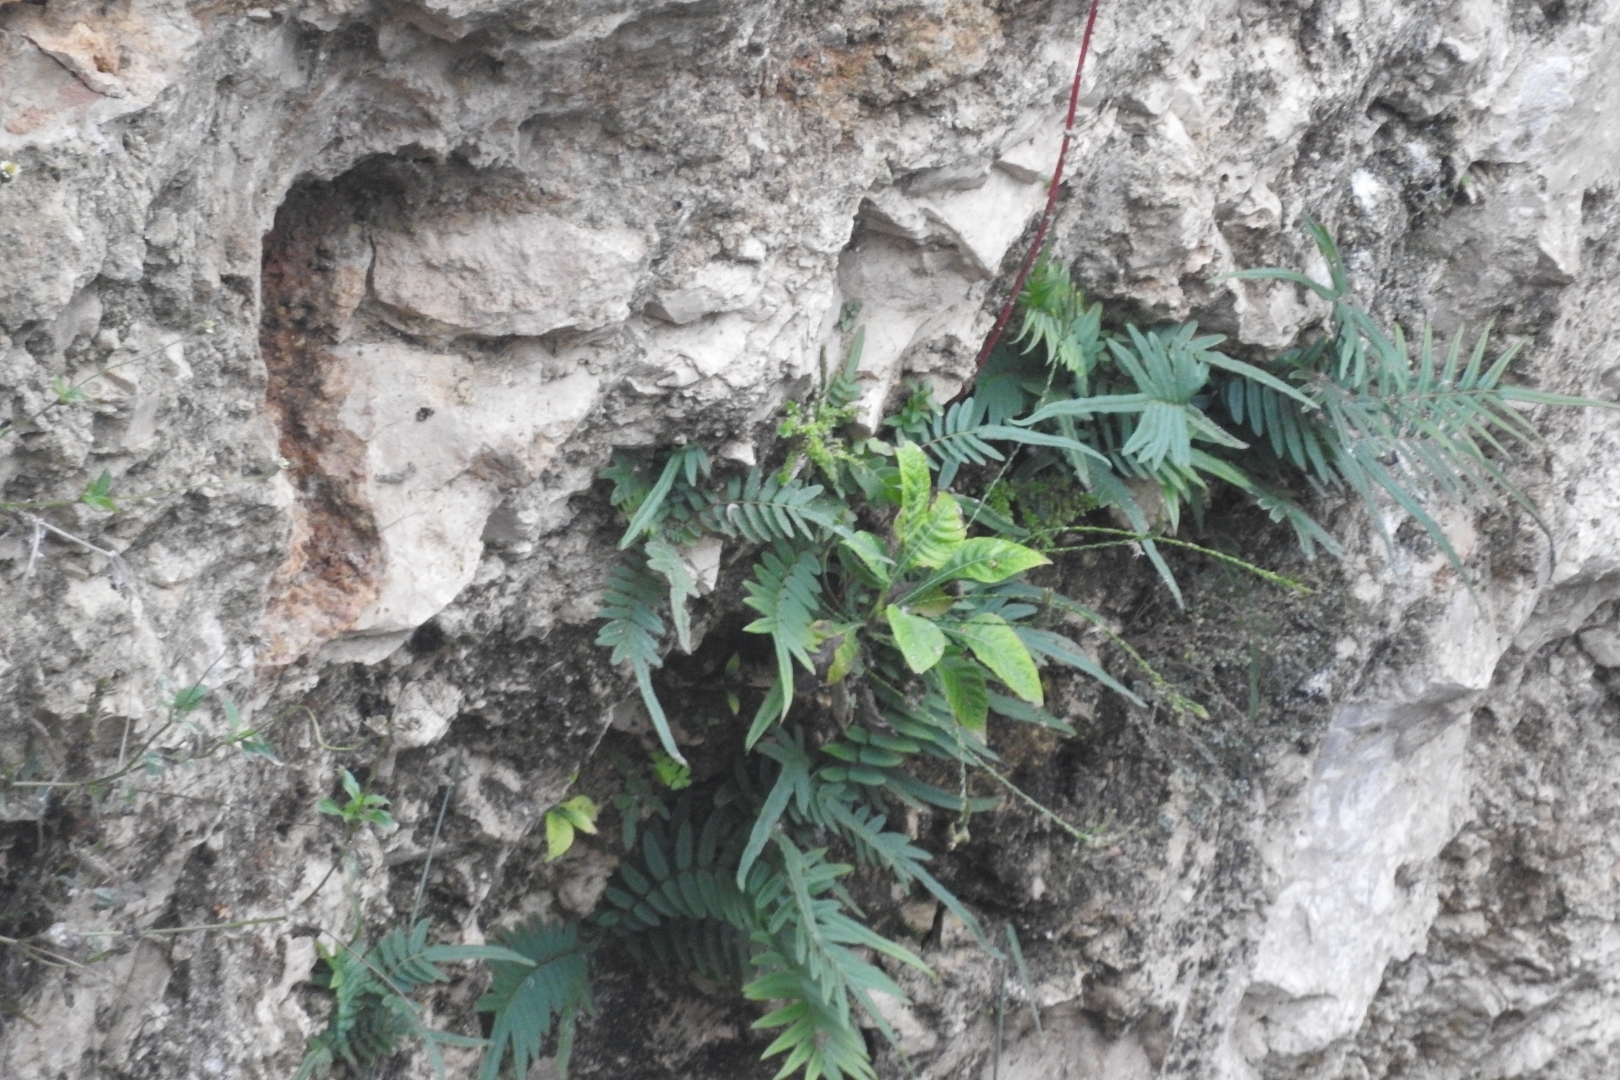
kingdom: Plantae
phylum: Tracheophyta
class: Polypodiopsida
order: Polypodiales
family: Pteridaceae
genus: Pteris
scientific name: Pteris vittata
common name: Ladder brake
